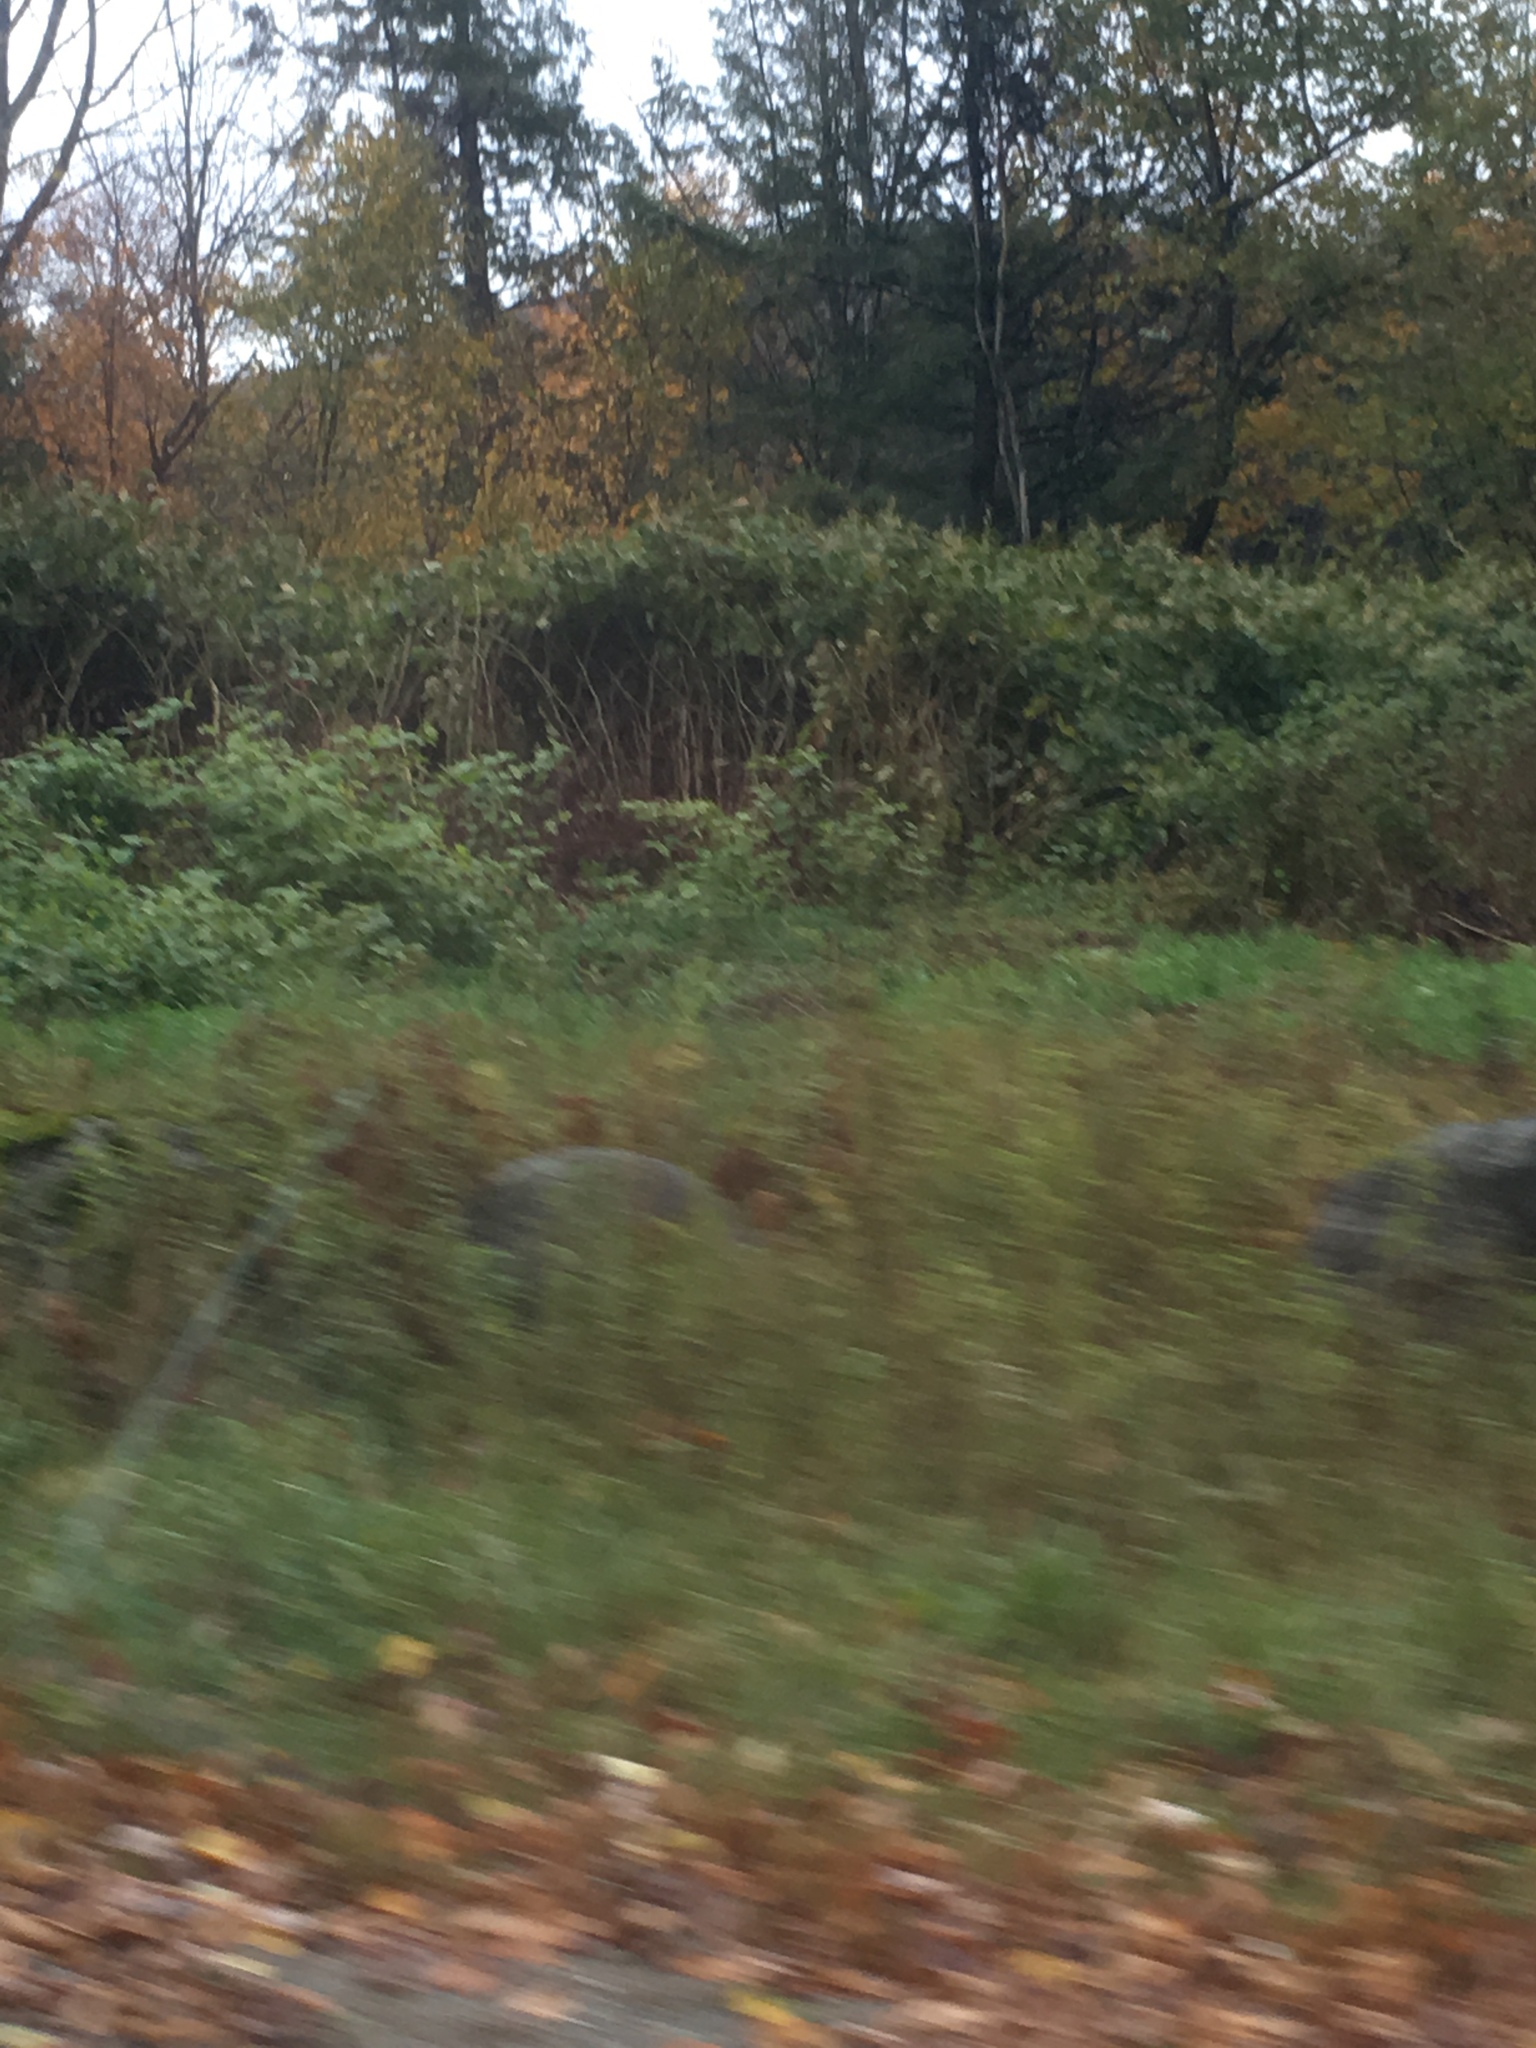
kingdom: Plantae
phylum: Tracheophyta
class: Magnoliopsida
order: Caryophyllales
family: Polygonaceae
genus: Reynoutria
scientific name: Reynoutria japonica
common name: Japanese knotweed
